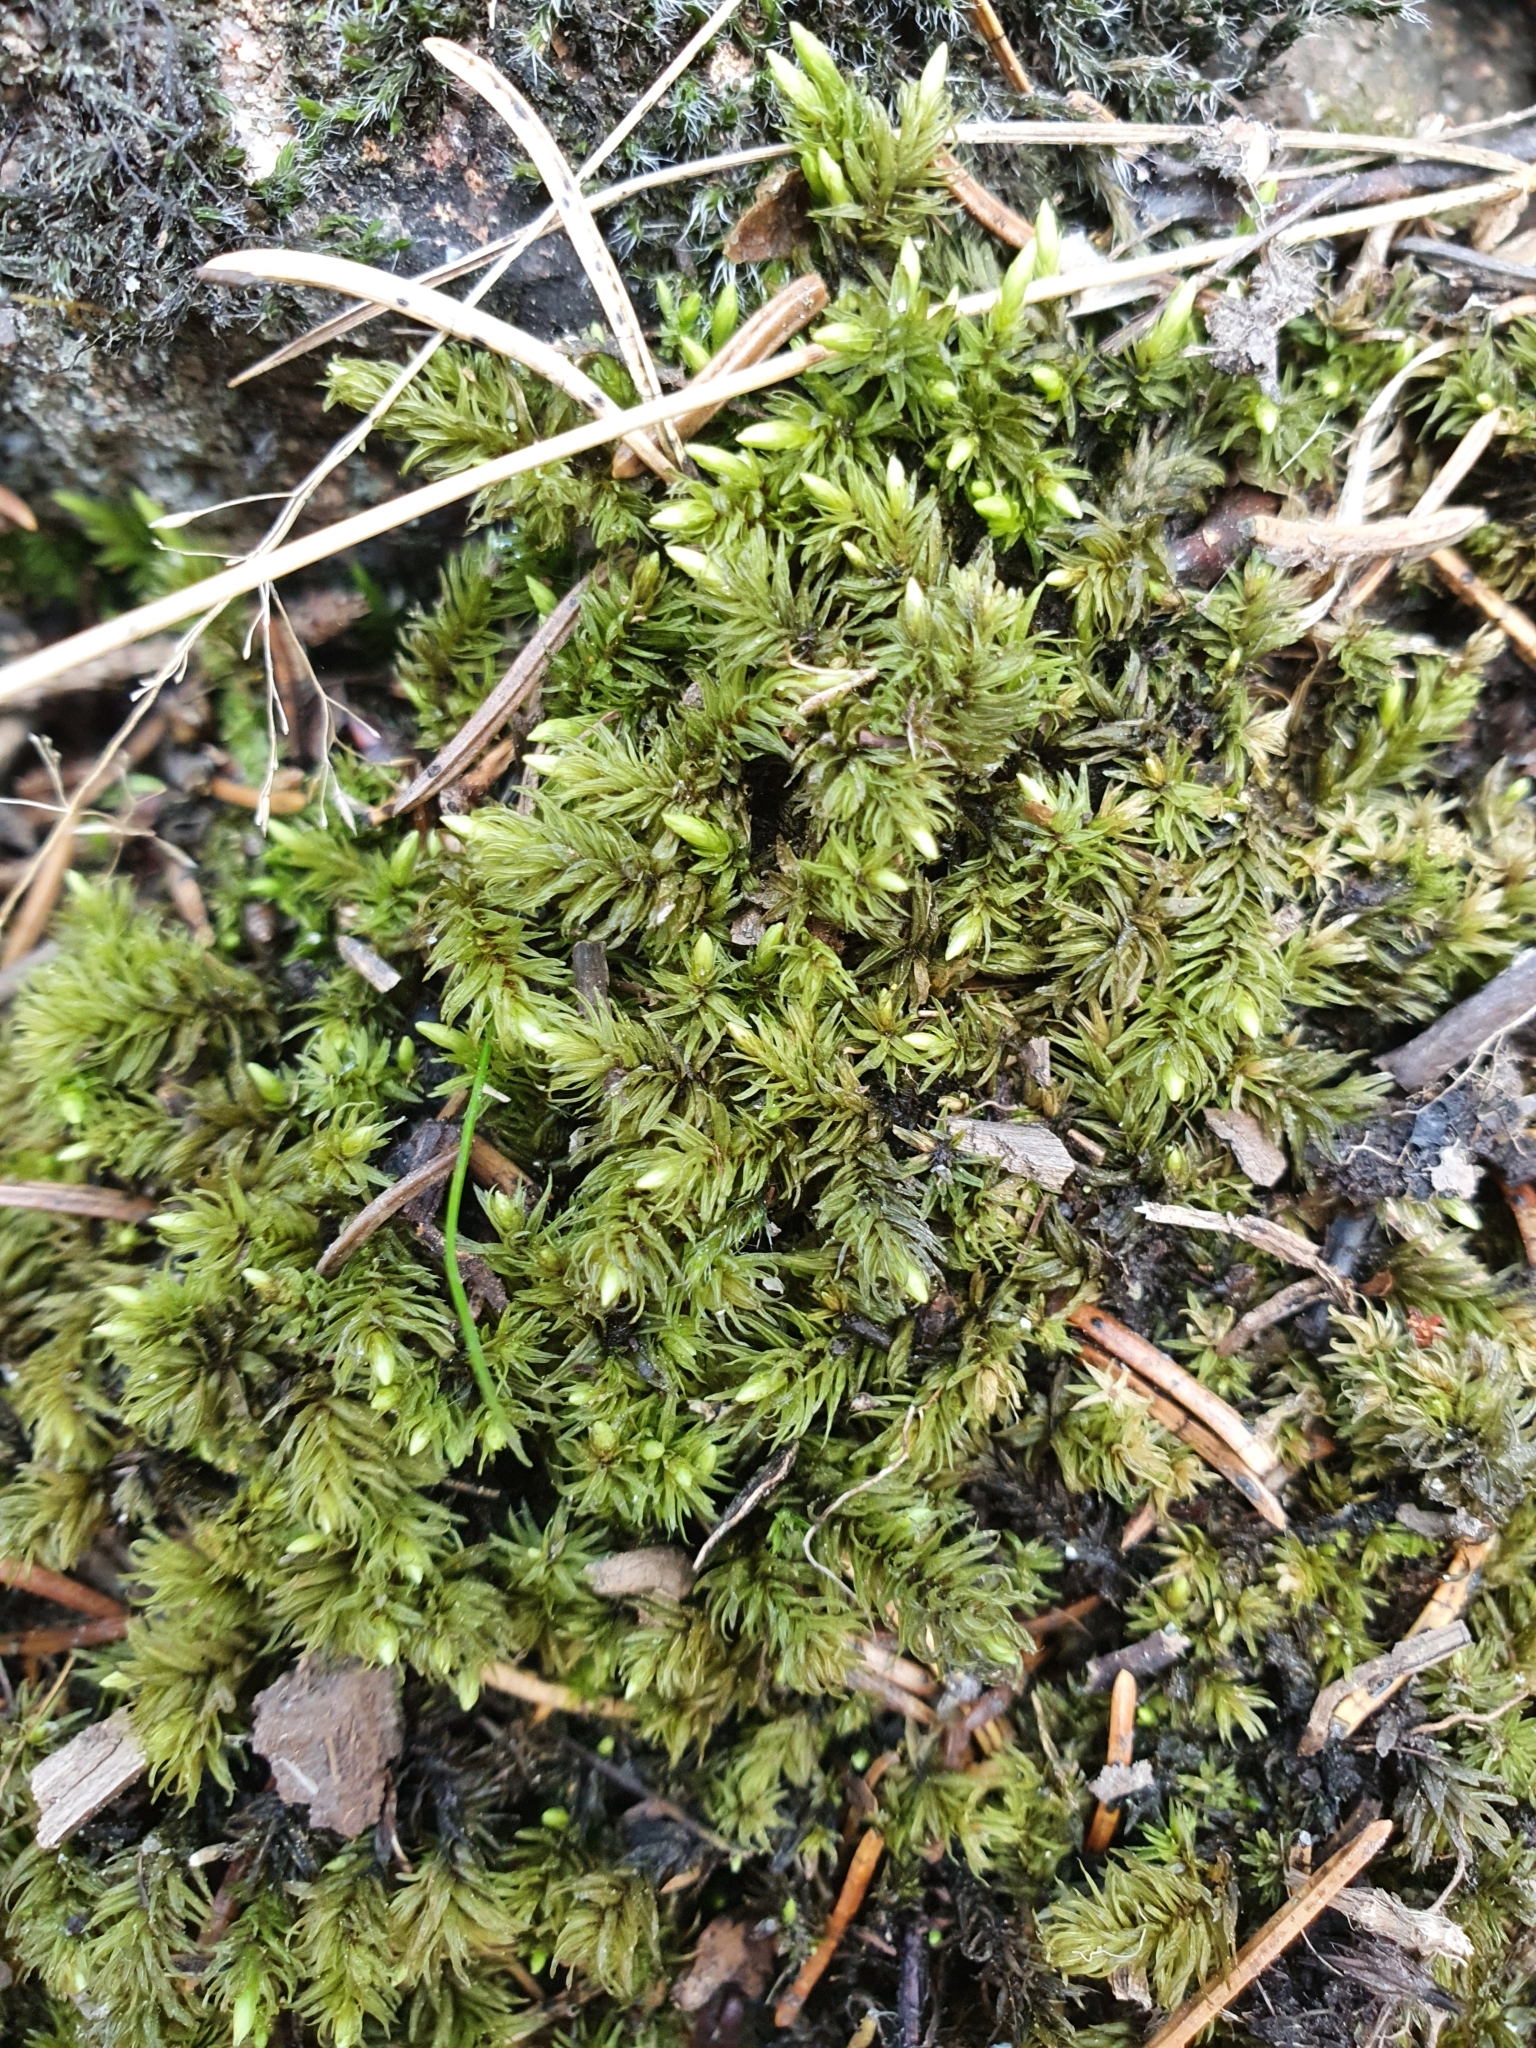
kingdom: Plantae
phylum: Bryophyta
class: Bryopsida
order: Aulacomniales
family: Aulacomniaceae
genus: Aulacomnium
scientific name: Aulacomnium palustre
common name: Bog groove-moss
